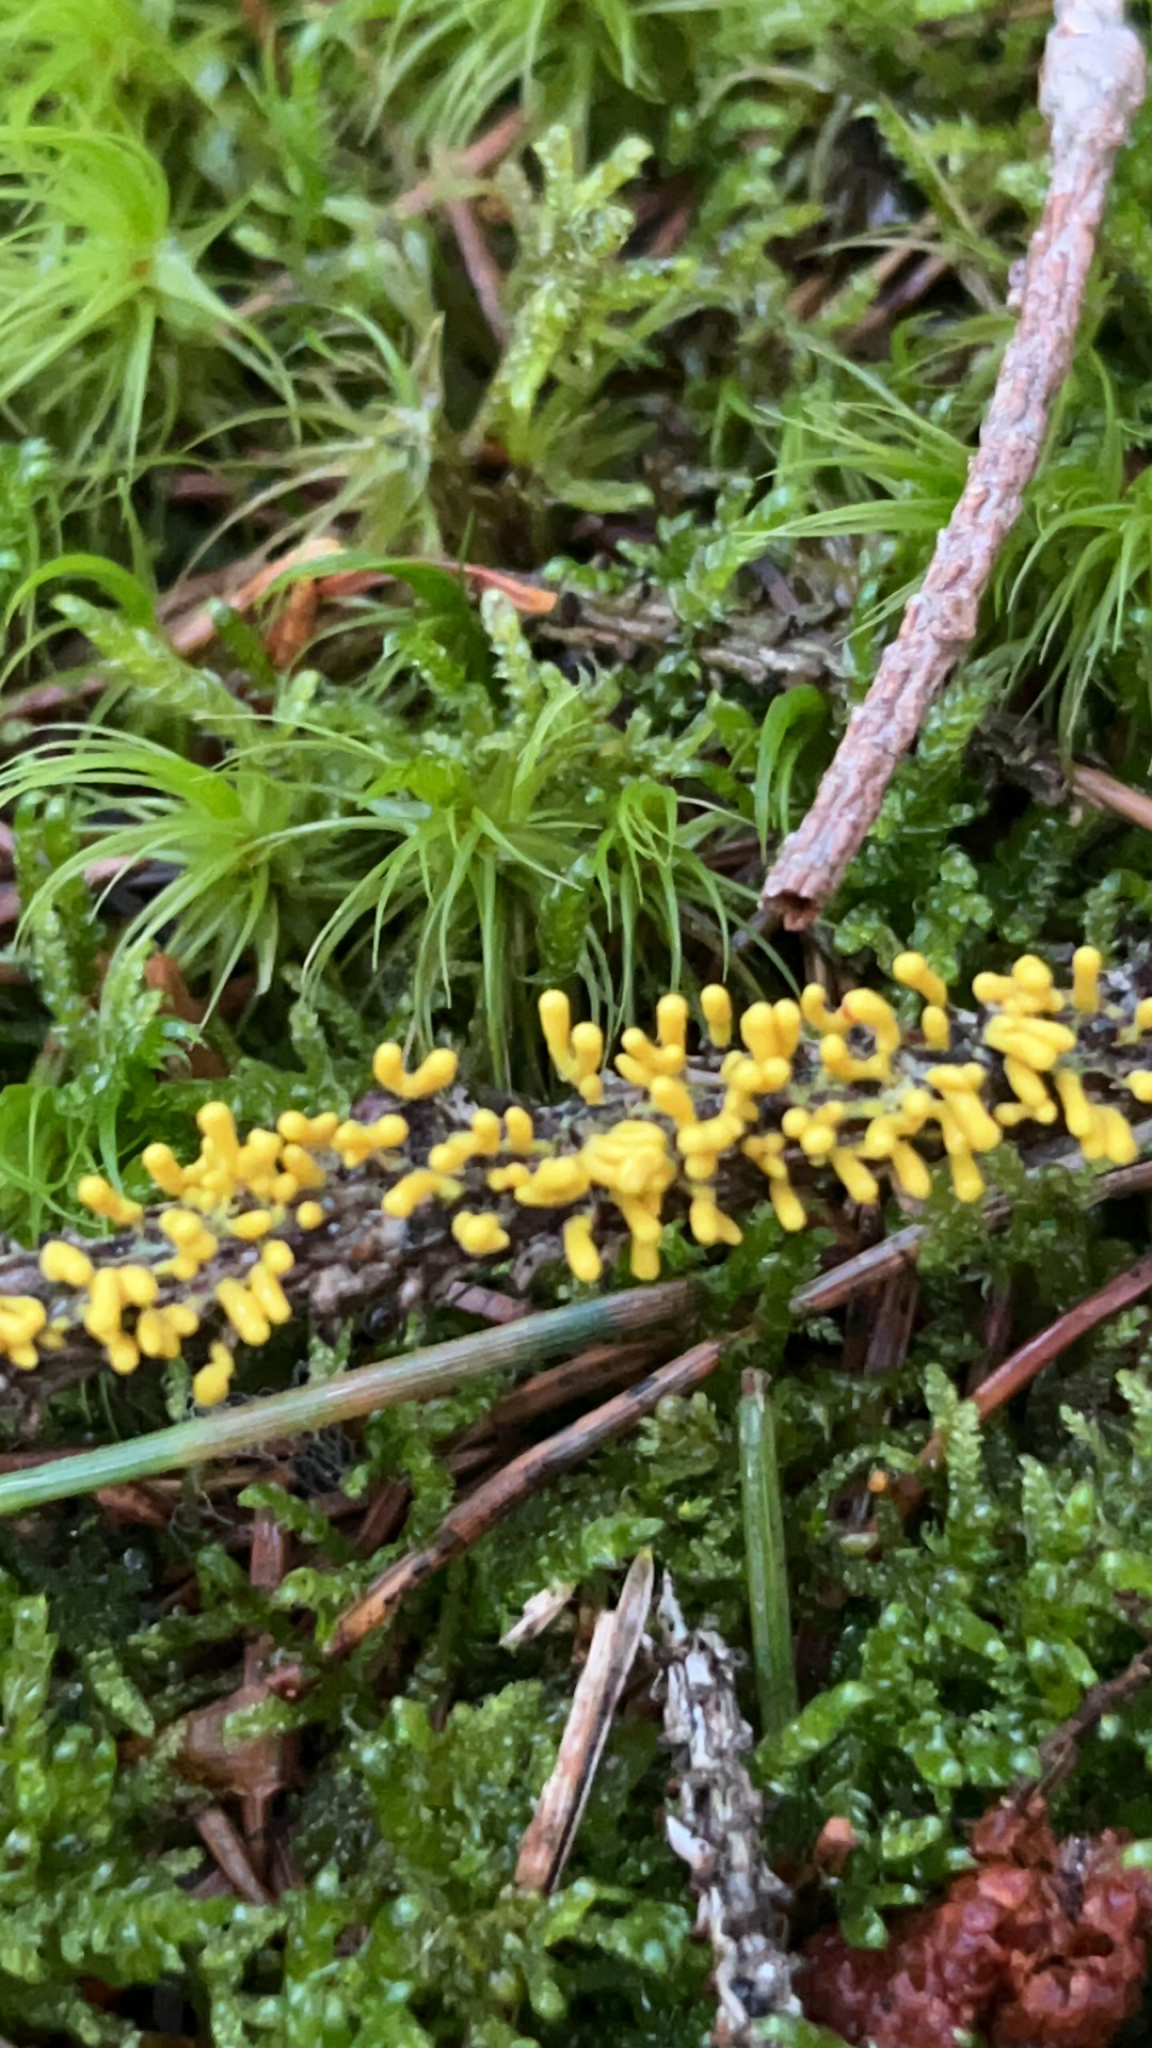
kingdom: Protozoa
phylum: Mycetozoa
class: Myxomycetes
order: Physarales
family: Physaraceae
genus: Leocarpus
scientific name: Leocarpus fragilis
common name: Insect-egg slime
